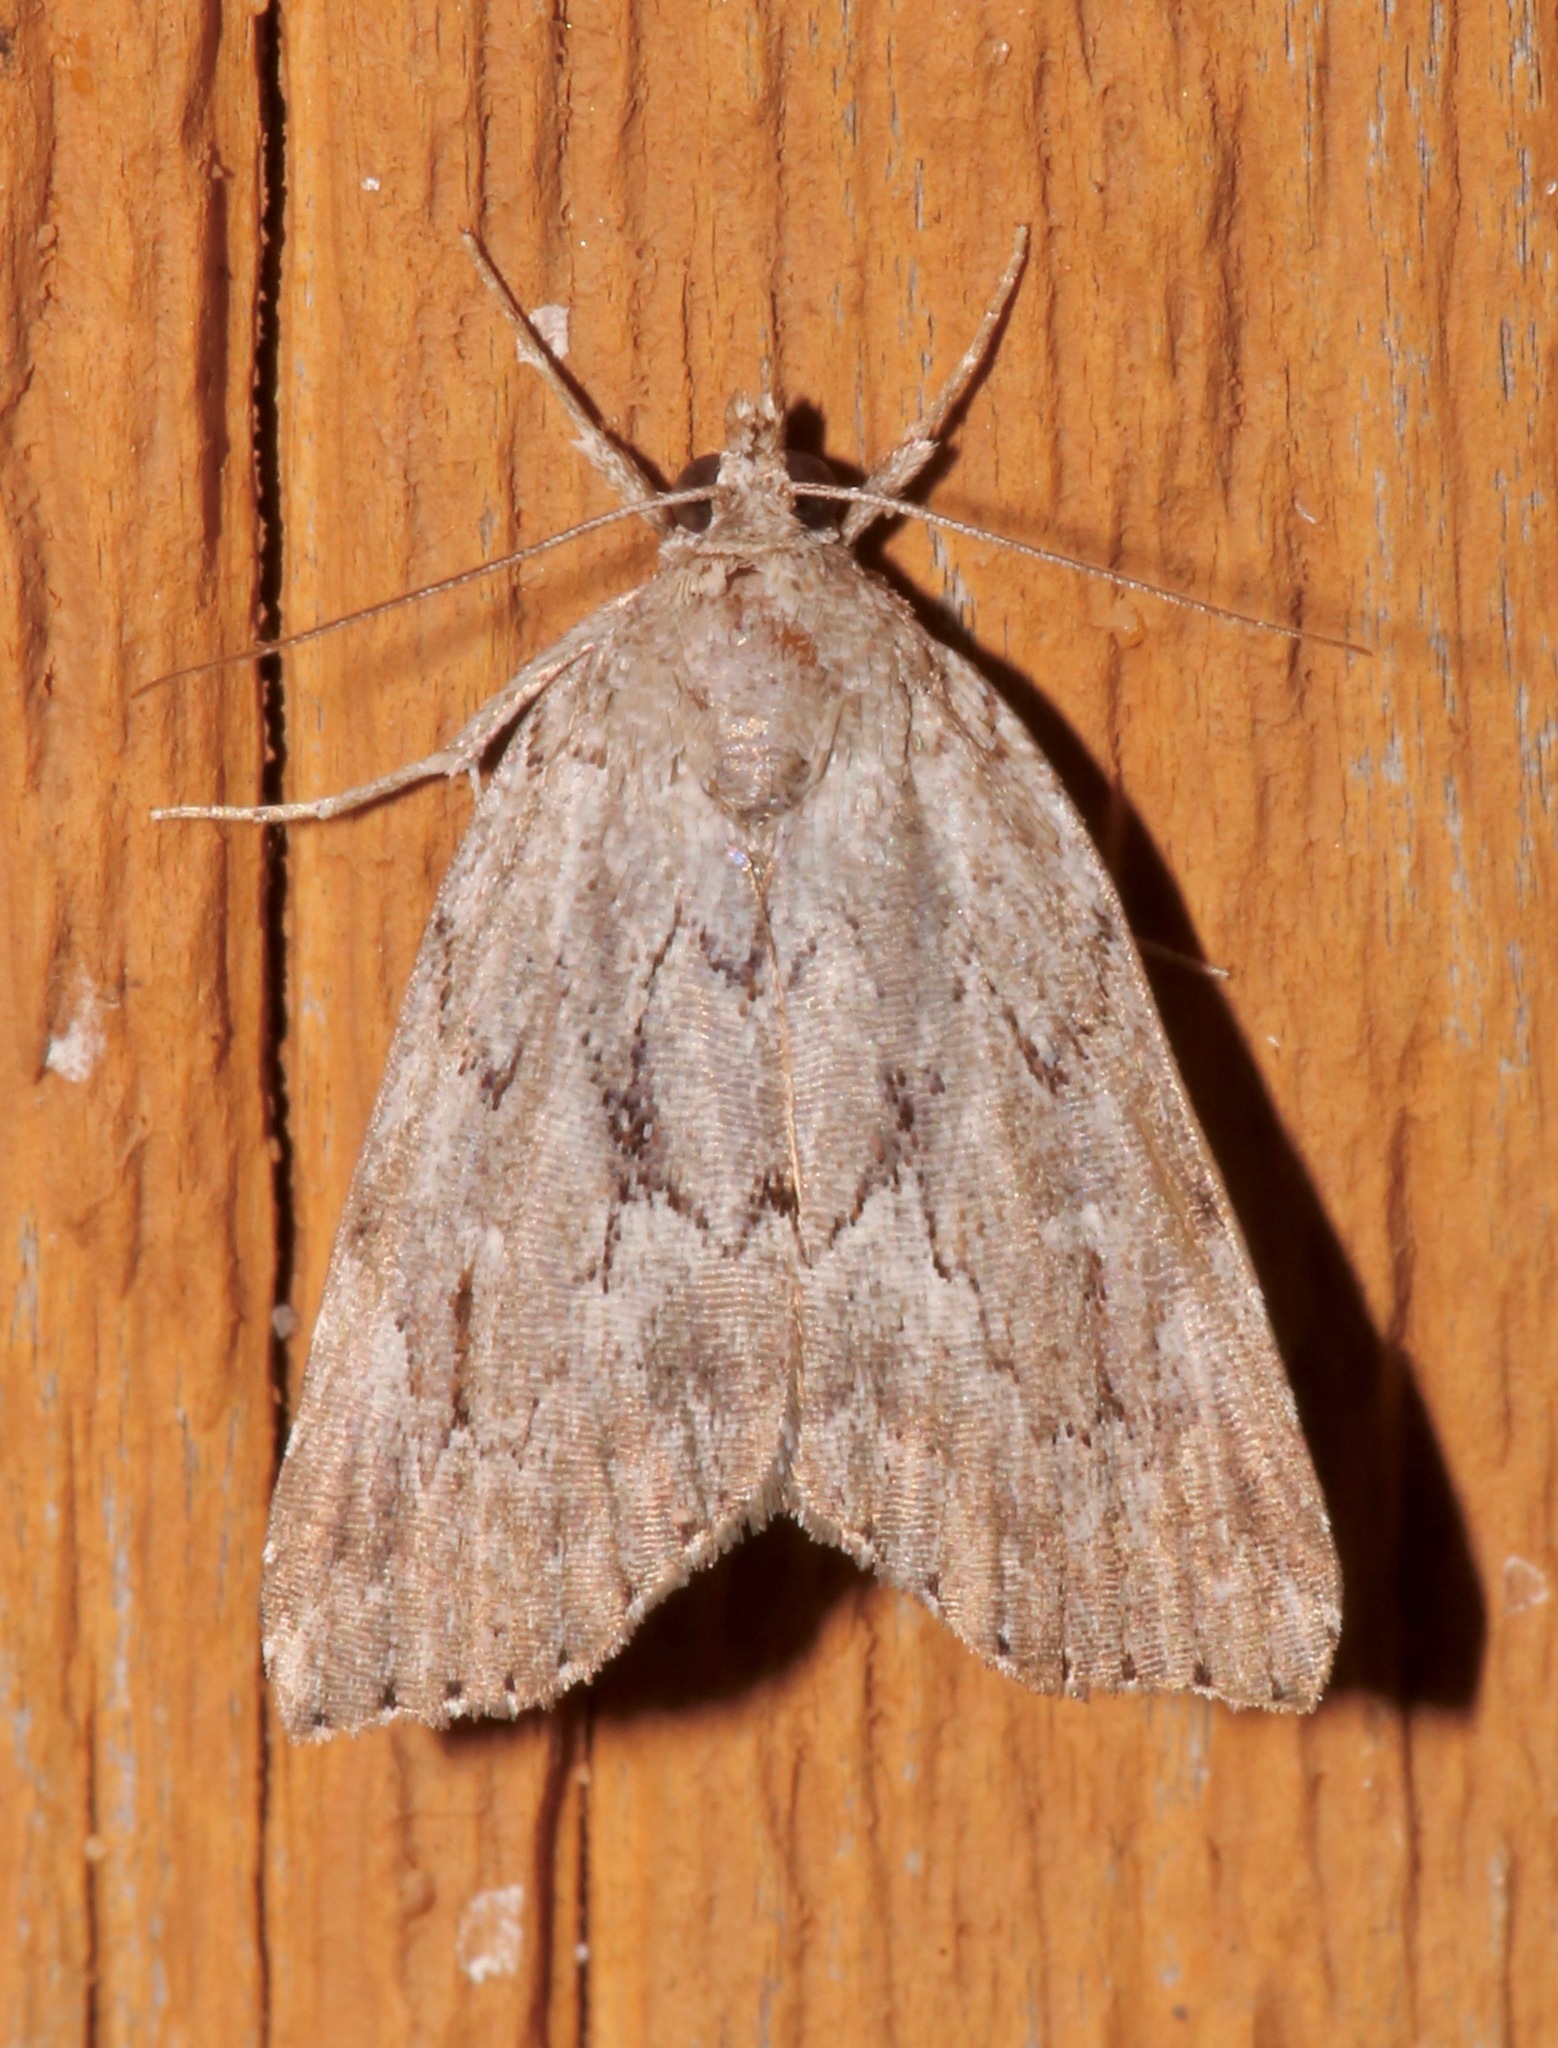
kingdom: Animalia
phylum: Arthropoda
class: Insecta
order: Lepidoptera
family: Erebidae
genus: Cutina
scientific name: Cutina albopunctella
